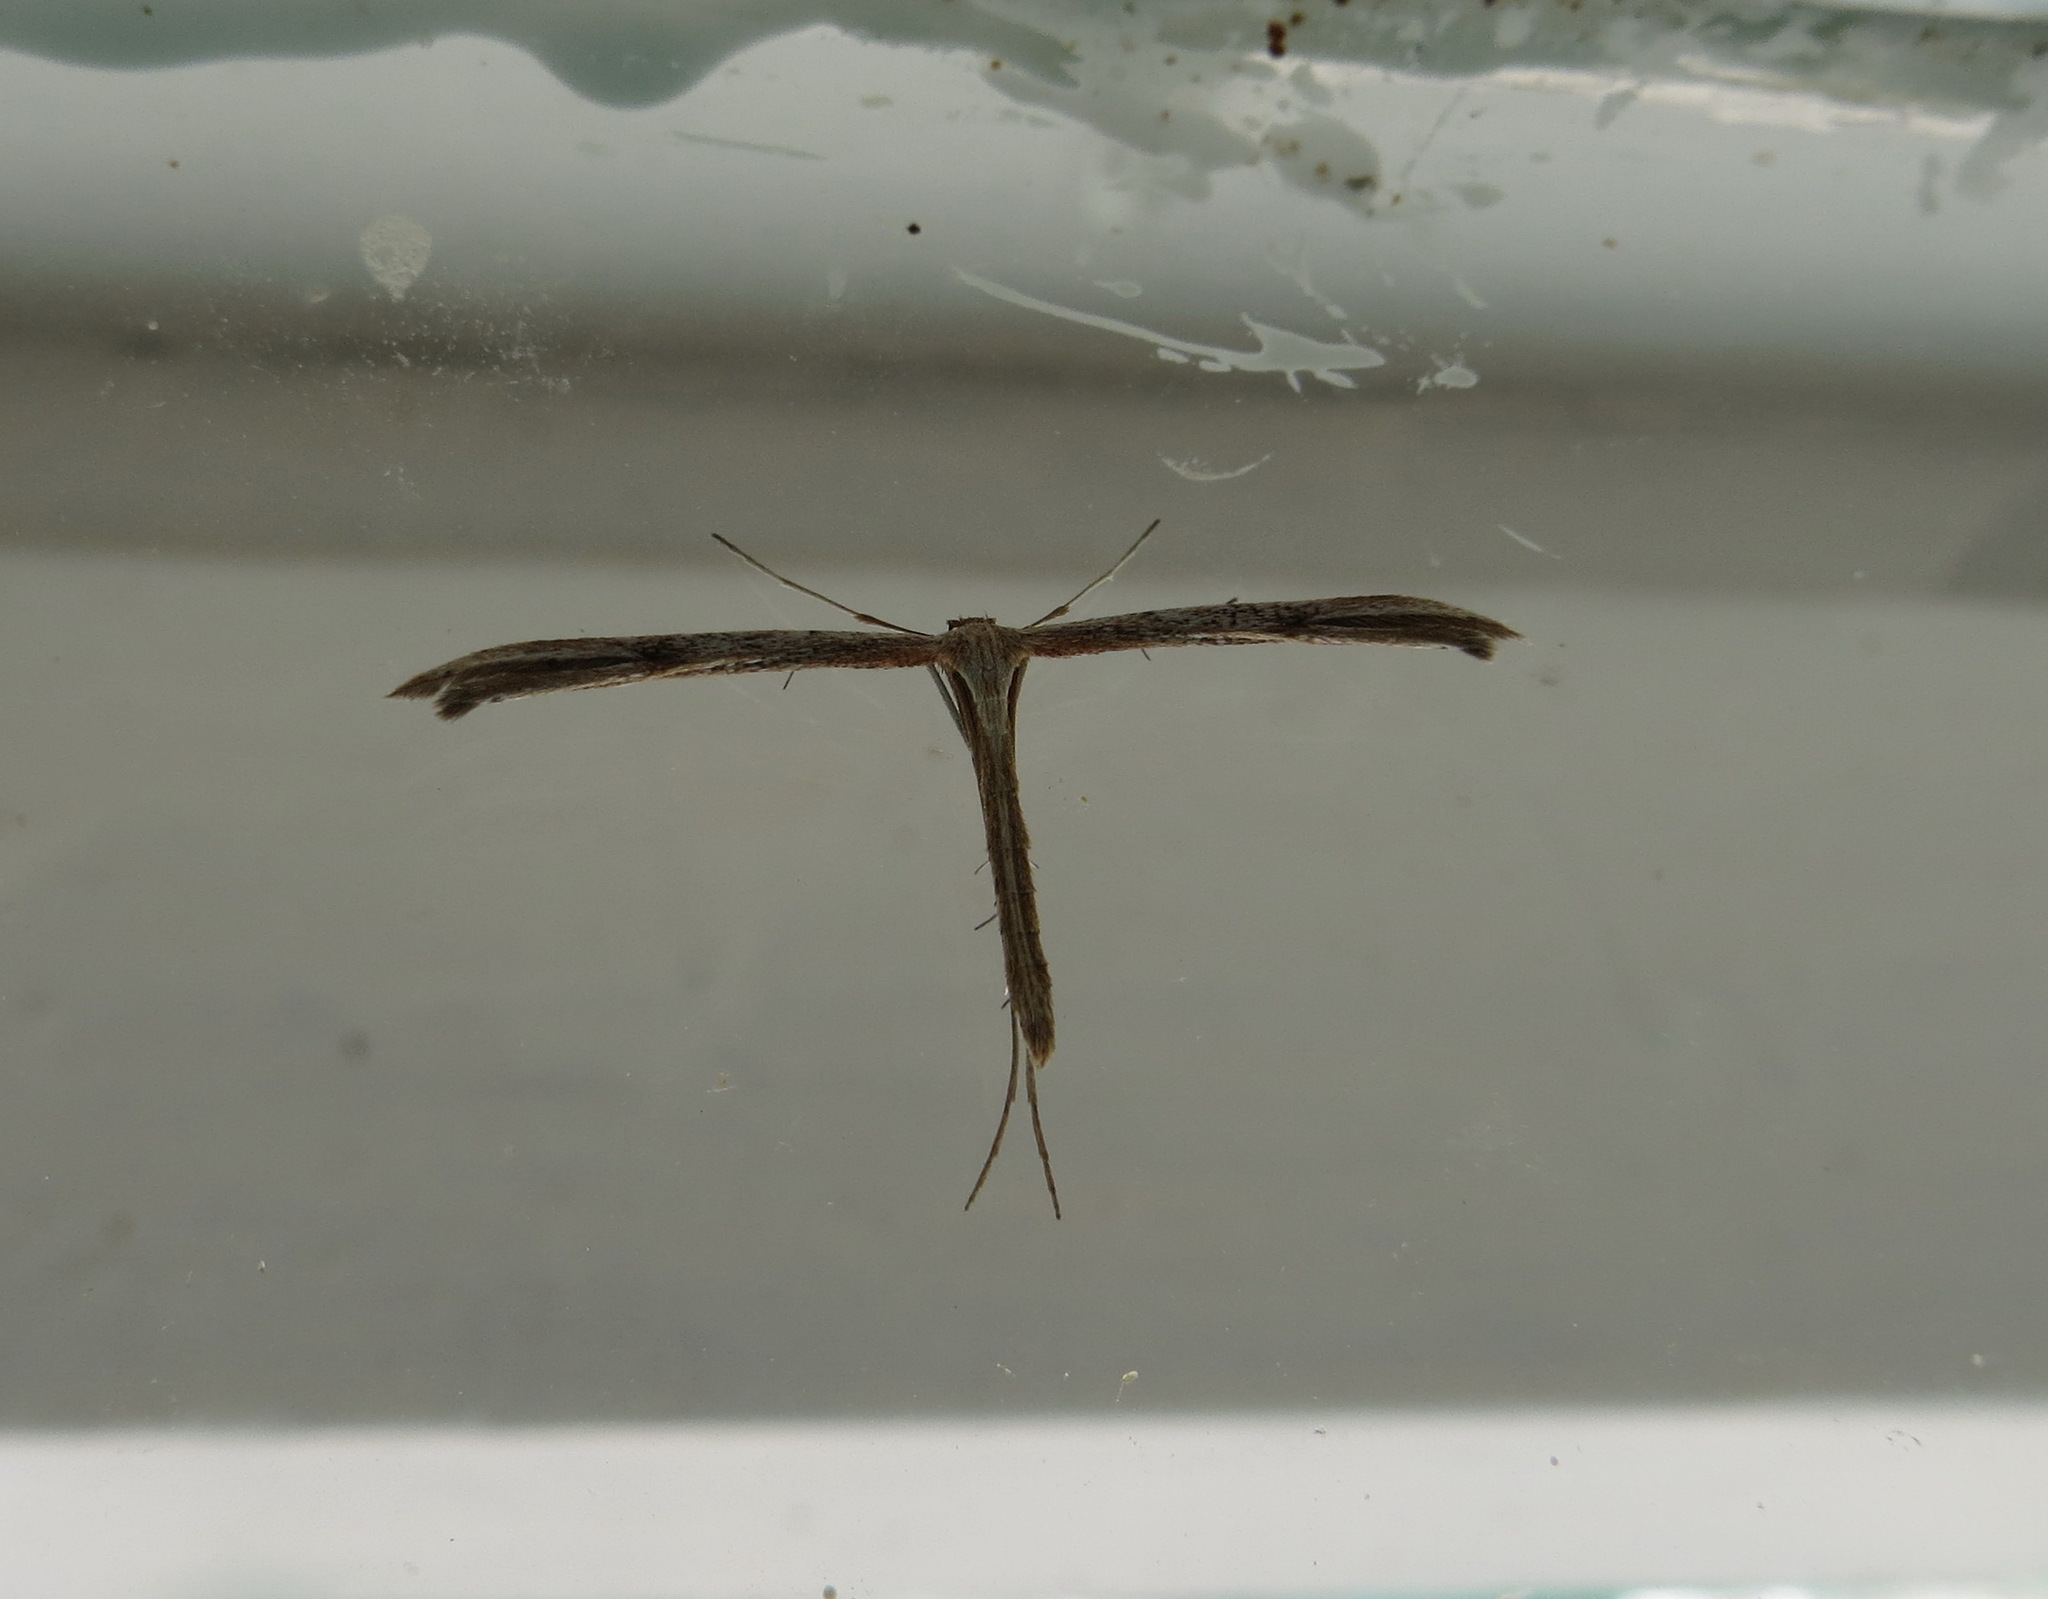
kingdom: Animalia
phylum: Arthropoda
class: Insecta
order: Lepidoptera
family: Pterophoridae
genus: Emmelina
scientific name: Emmelina monodactyla
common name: Common plume
